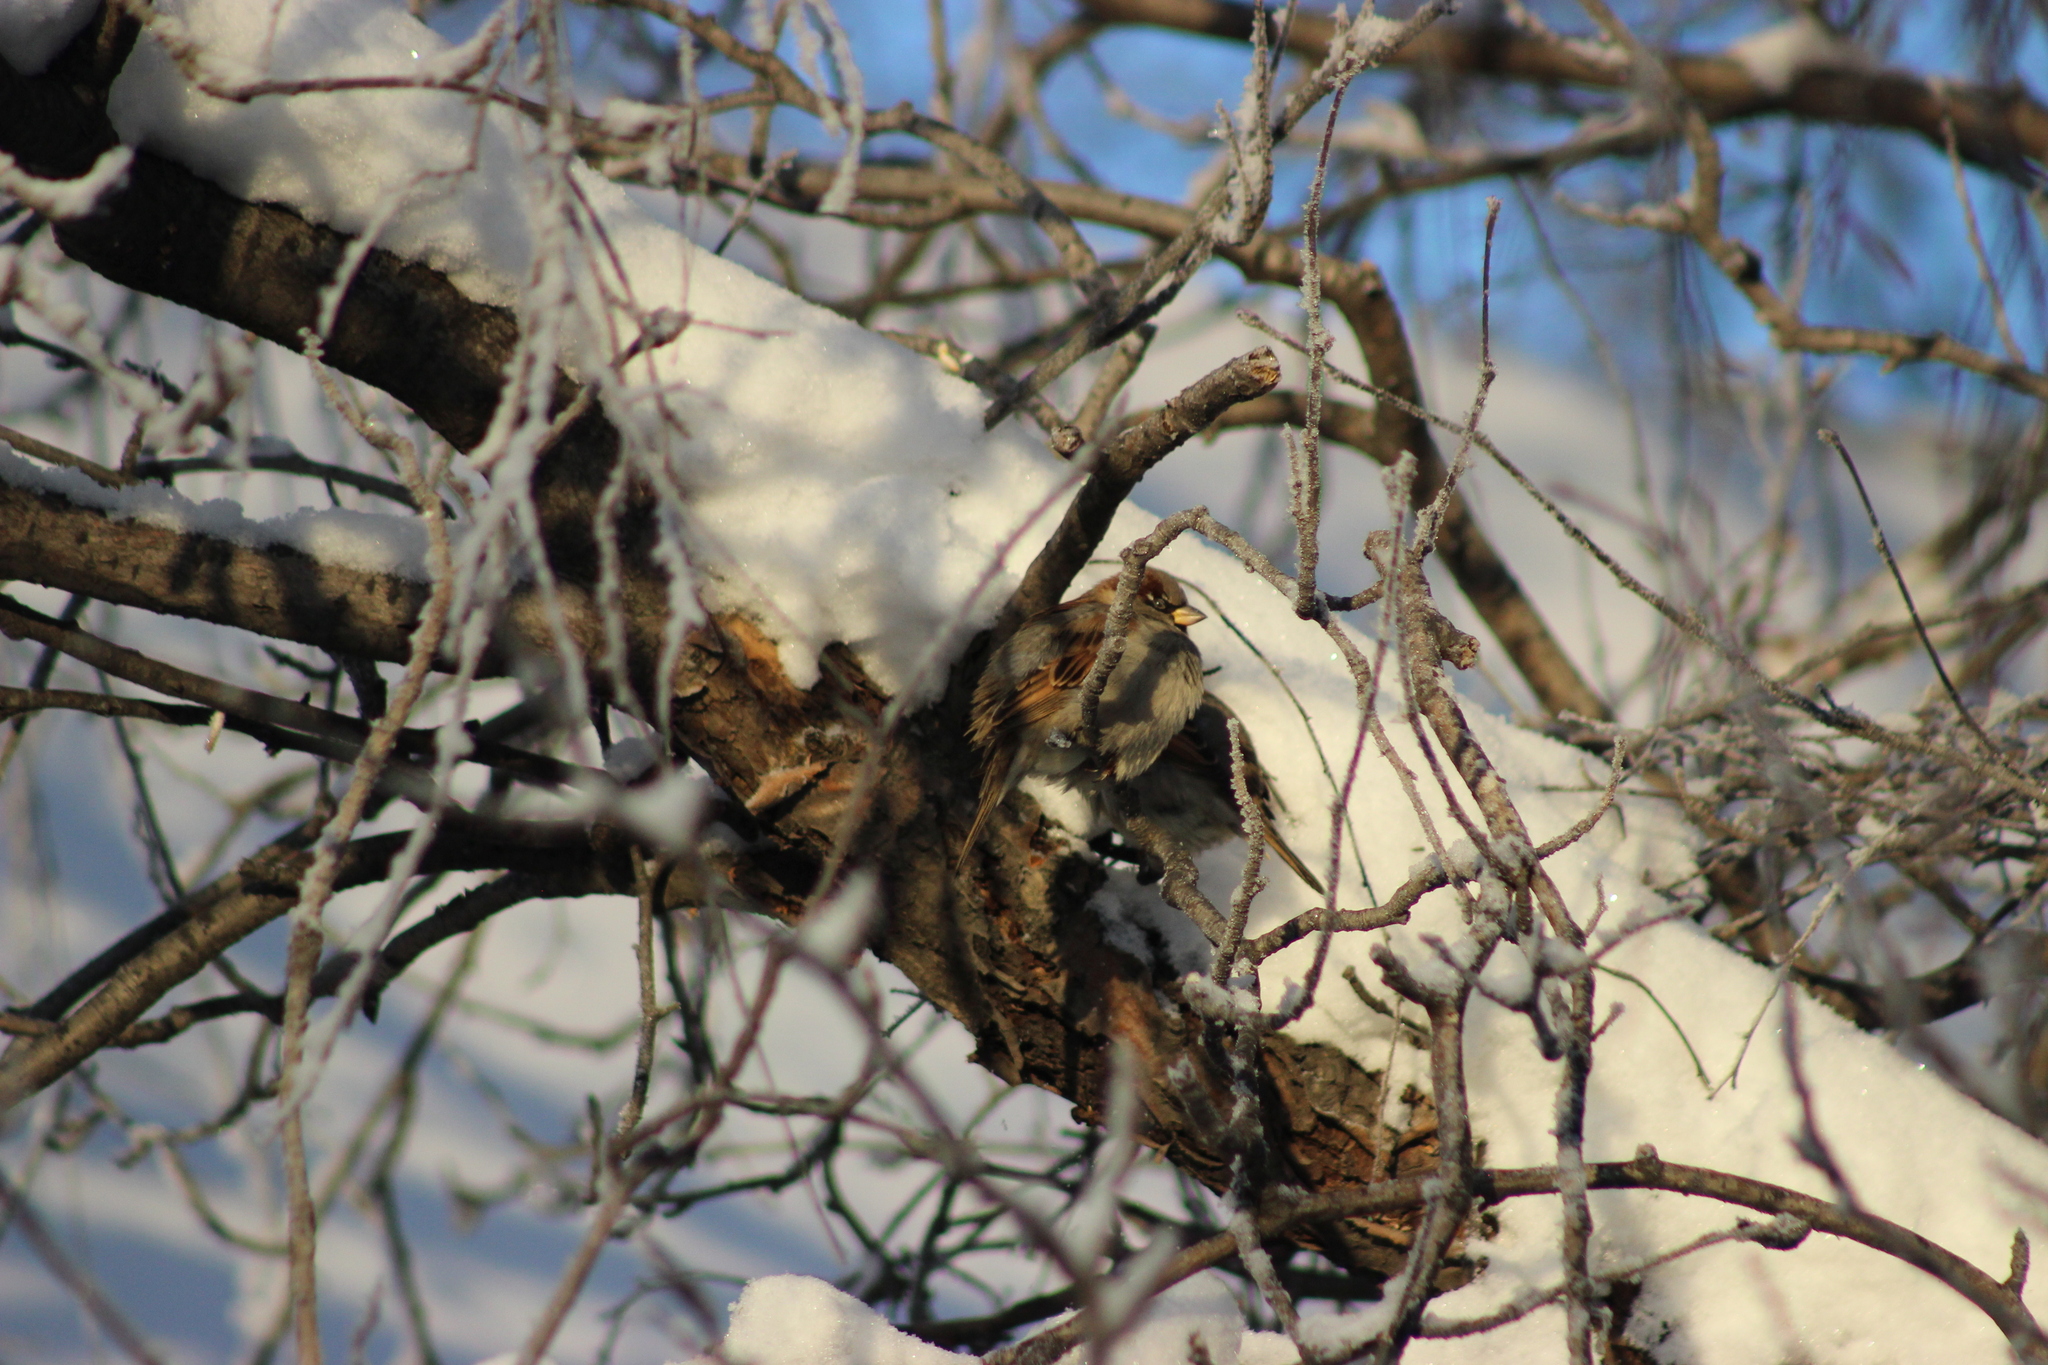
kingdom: Animalia
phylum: Chordata
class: Aves
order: Passeriformes
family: Passeridae
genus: Passer
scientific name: Passer domesticus
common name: House sparrow
